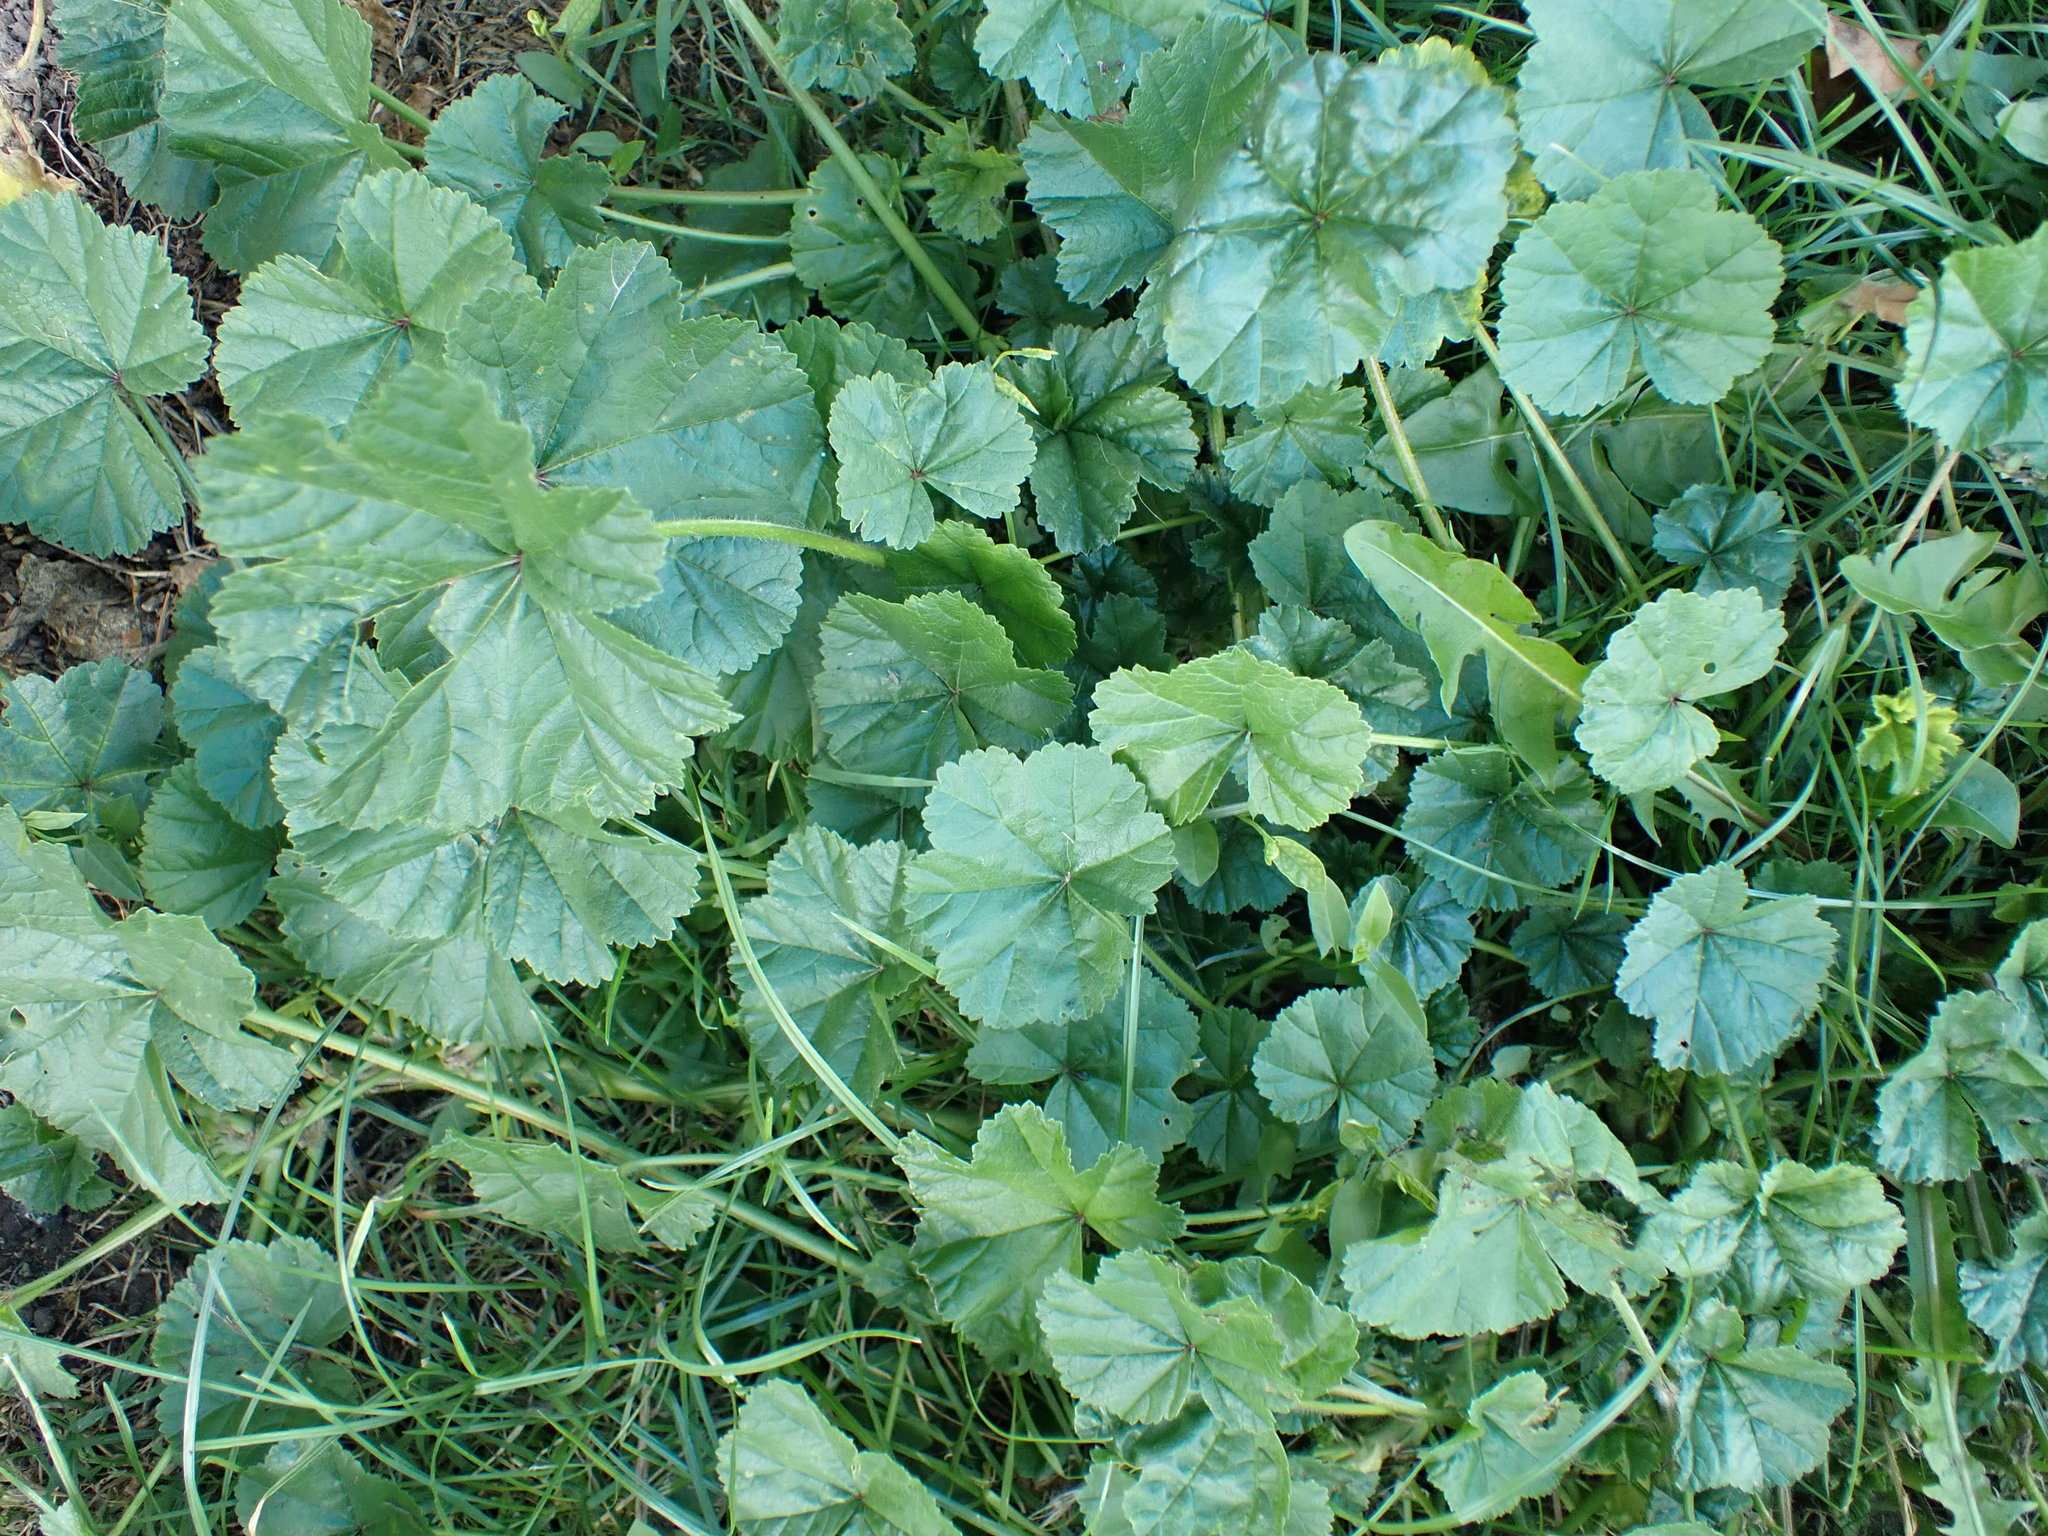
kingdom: Plantae
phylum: Tracheophyta
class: Magnoliopsida
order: Malvales
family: Malvaceae
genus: Malva
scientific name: Malva sylvestris
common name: Common mallow
